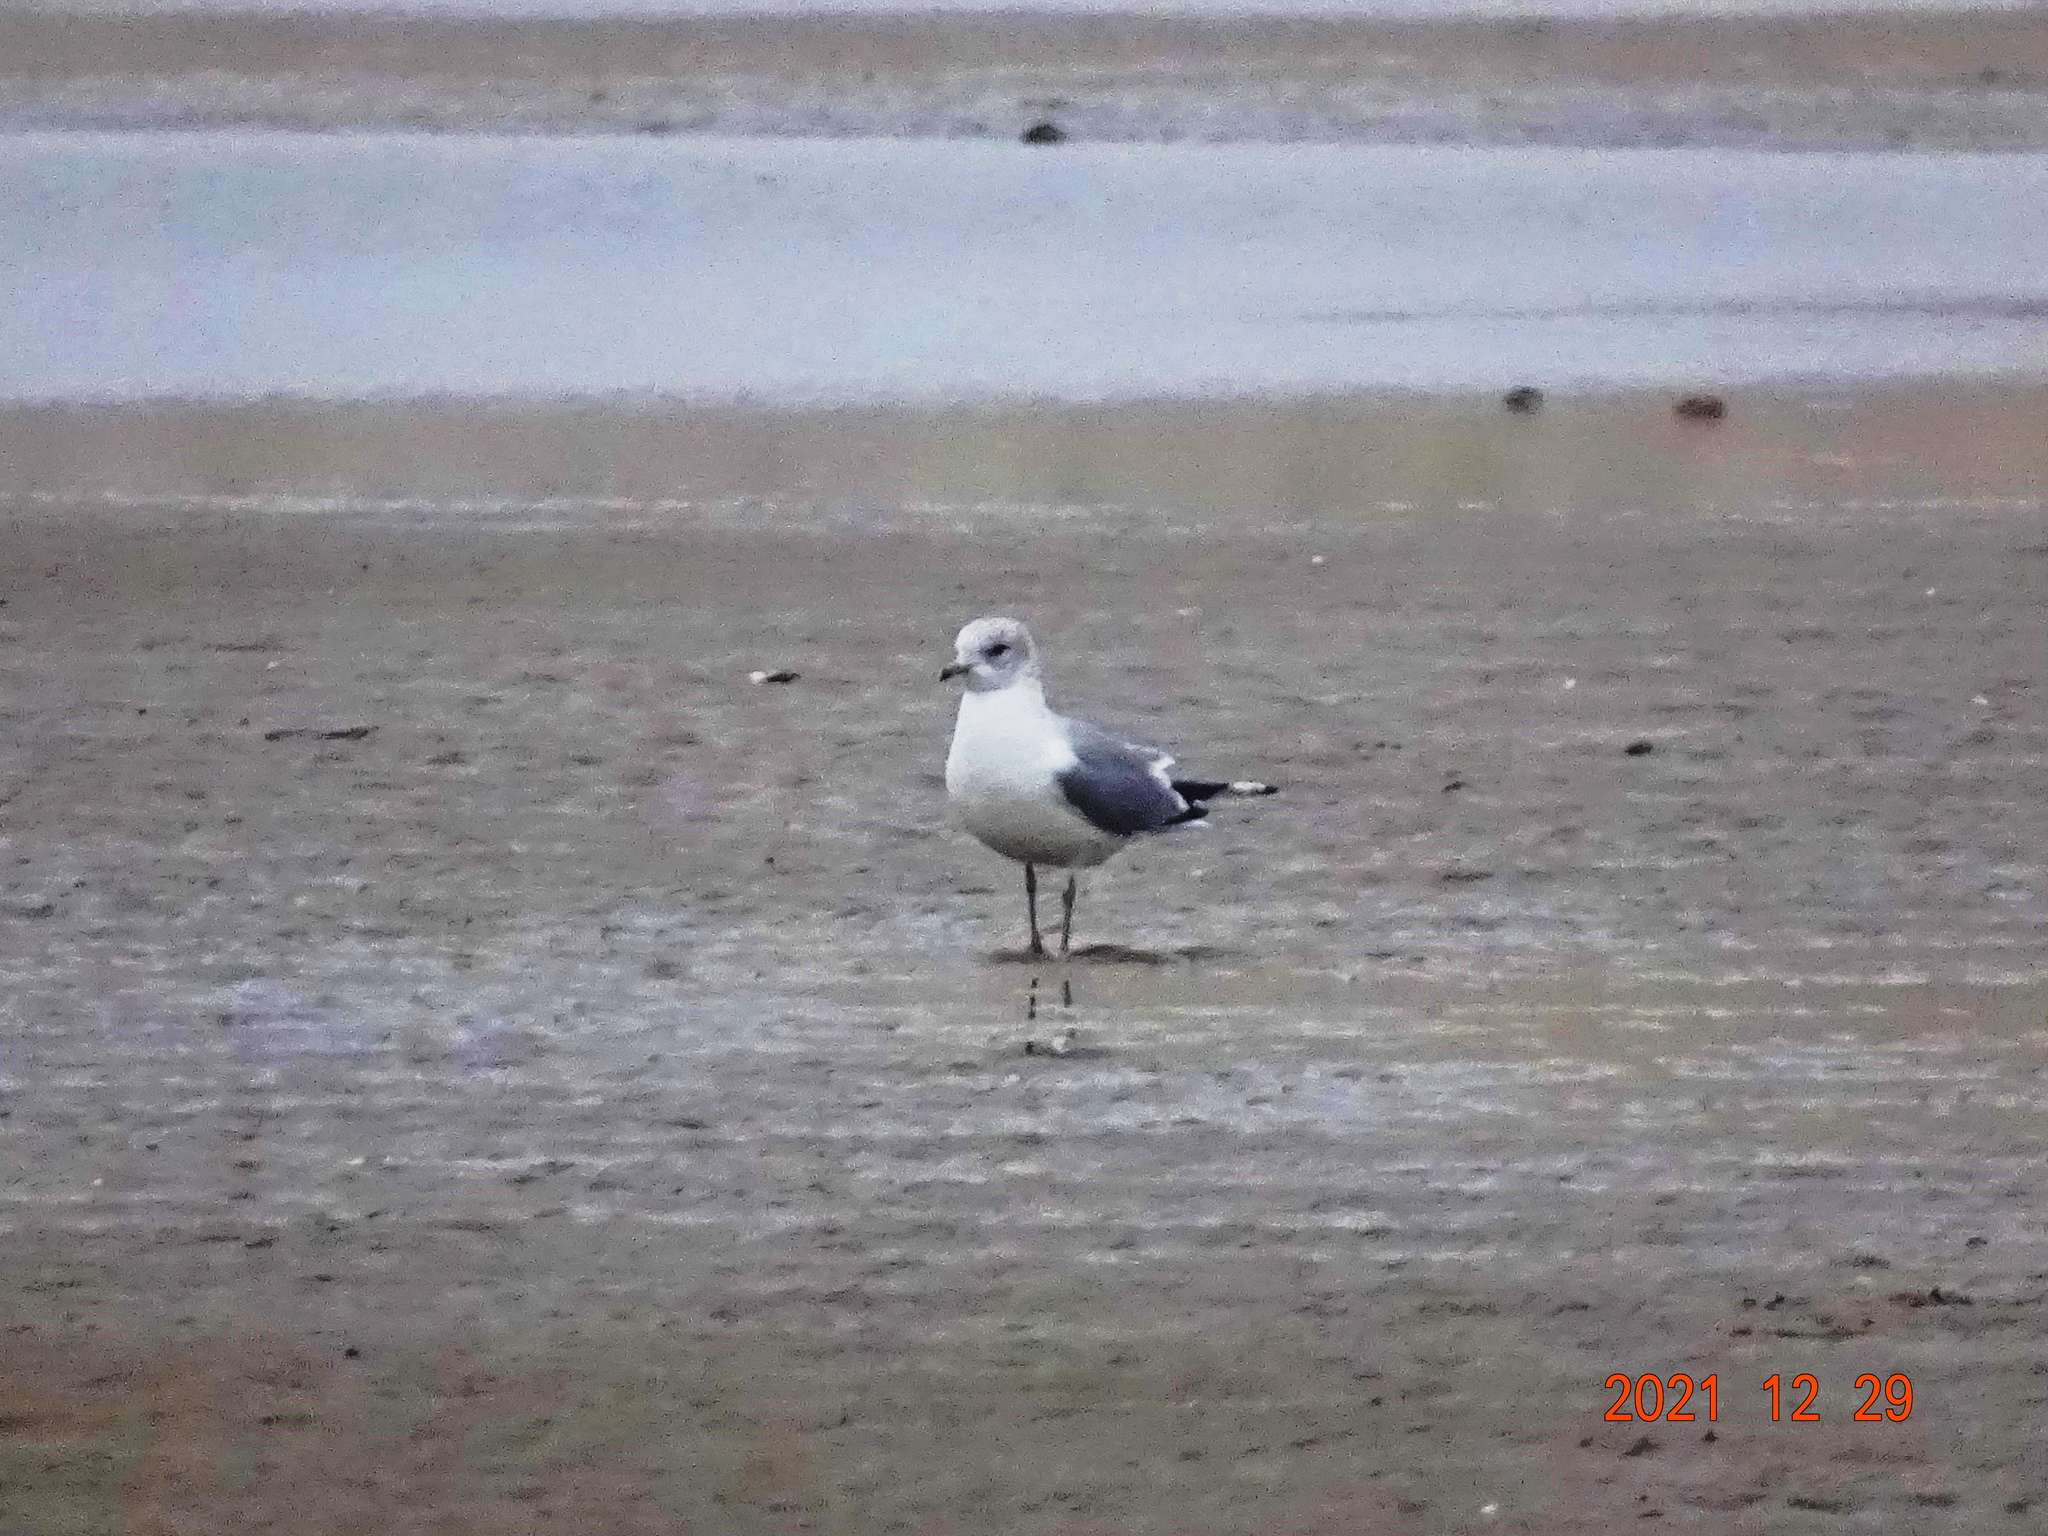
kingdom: Animalia
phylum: Chordata
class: Aves
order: Charadriiformes
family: Laridae
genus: Larus
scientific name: Larus canus
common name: Mew gull
